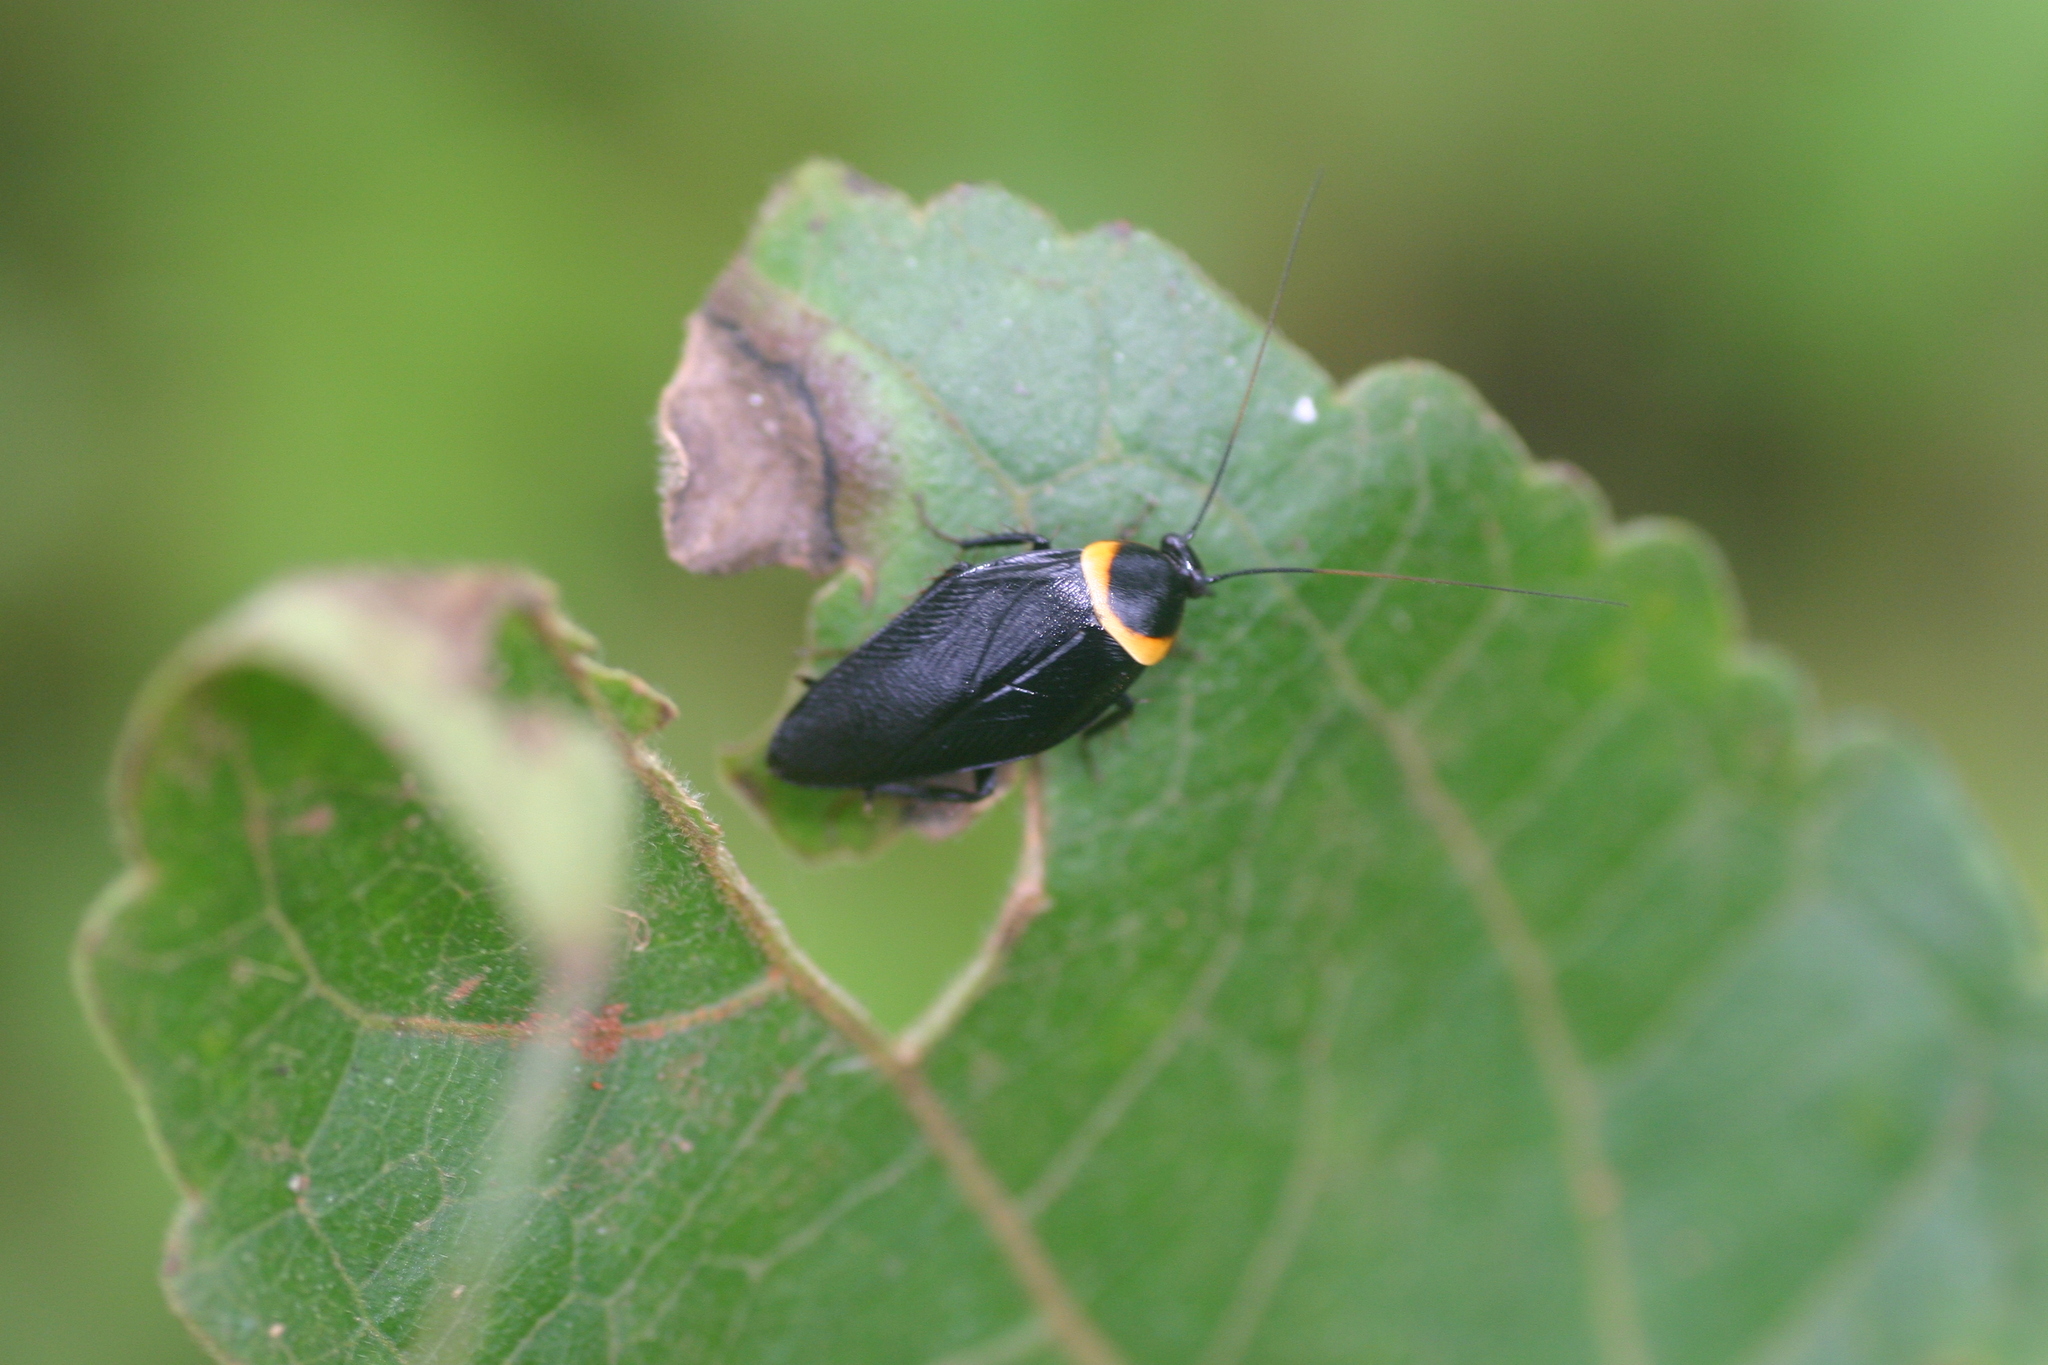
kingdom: Animalia
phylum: Arthropoda
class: Insecta
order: Blattodea
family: Ectobiidae
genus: Hemithyrsocera
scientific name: Hemithyrsocera palliata
